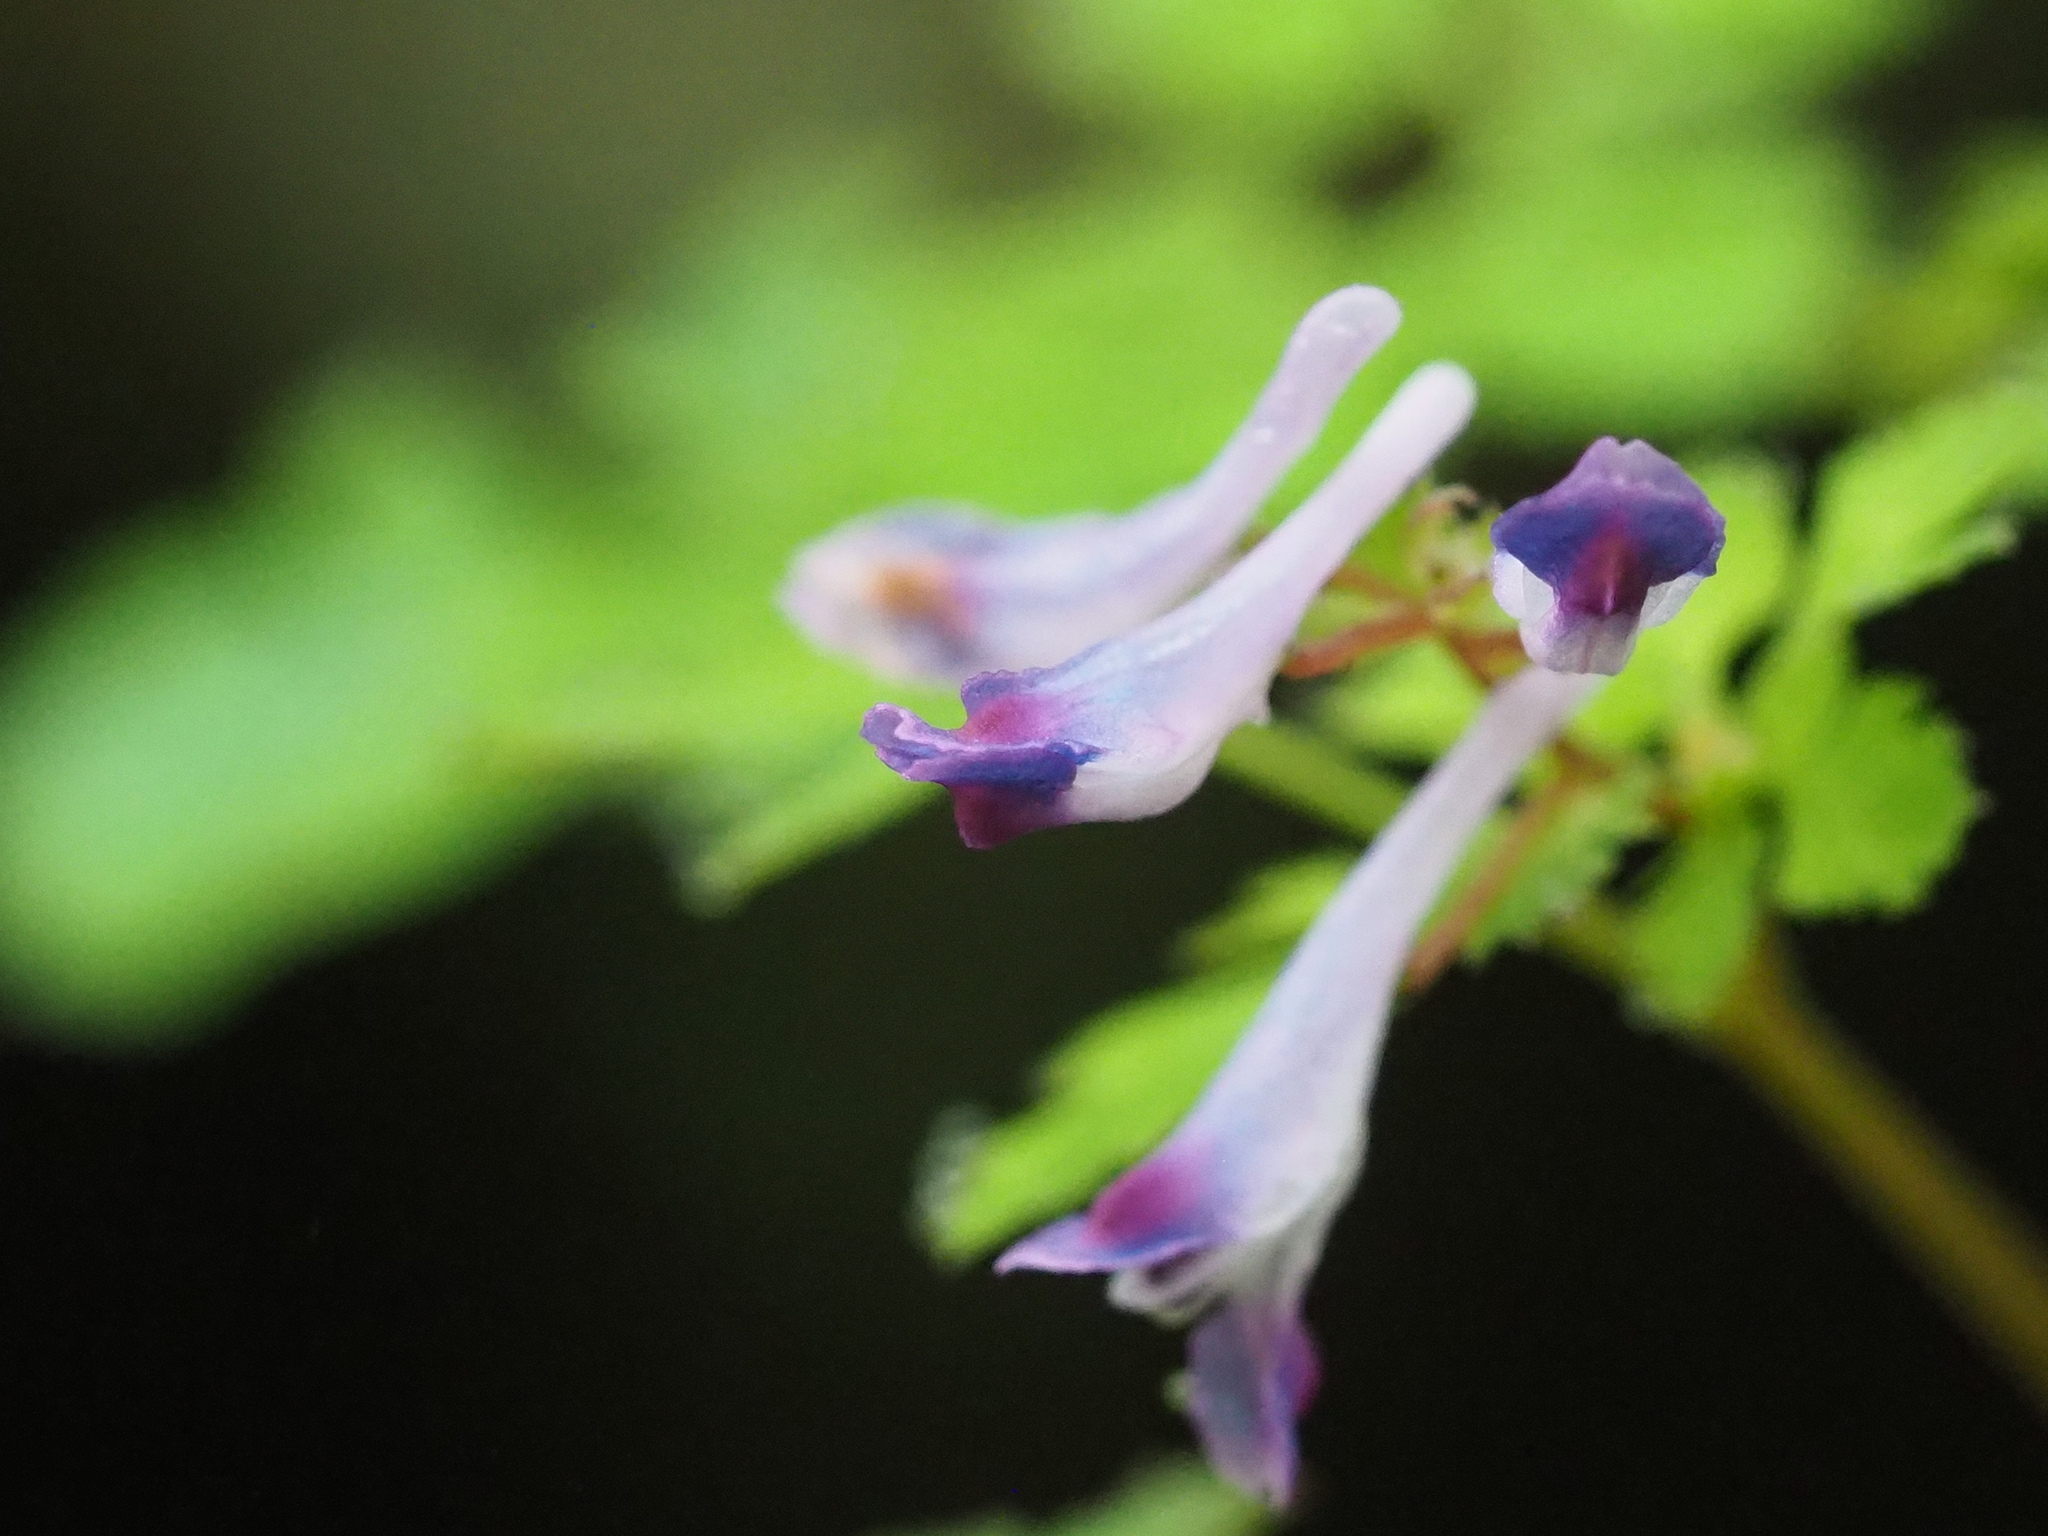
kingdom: Plantae
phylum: Tracheophyta
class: Magnoliopsida
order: Ranunculales
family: Papaveraceae
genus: Corydalis
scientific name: Corydalis incisa
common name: Incised fumewort
